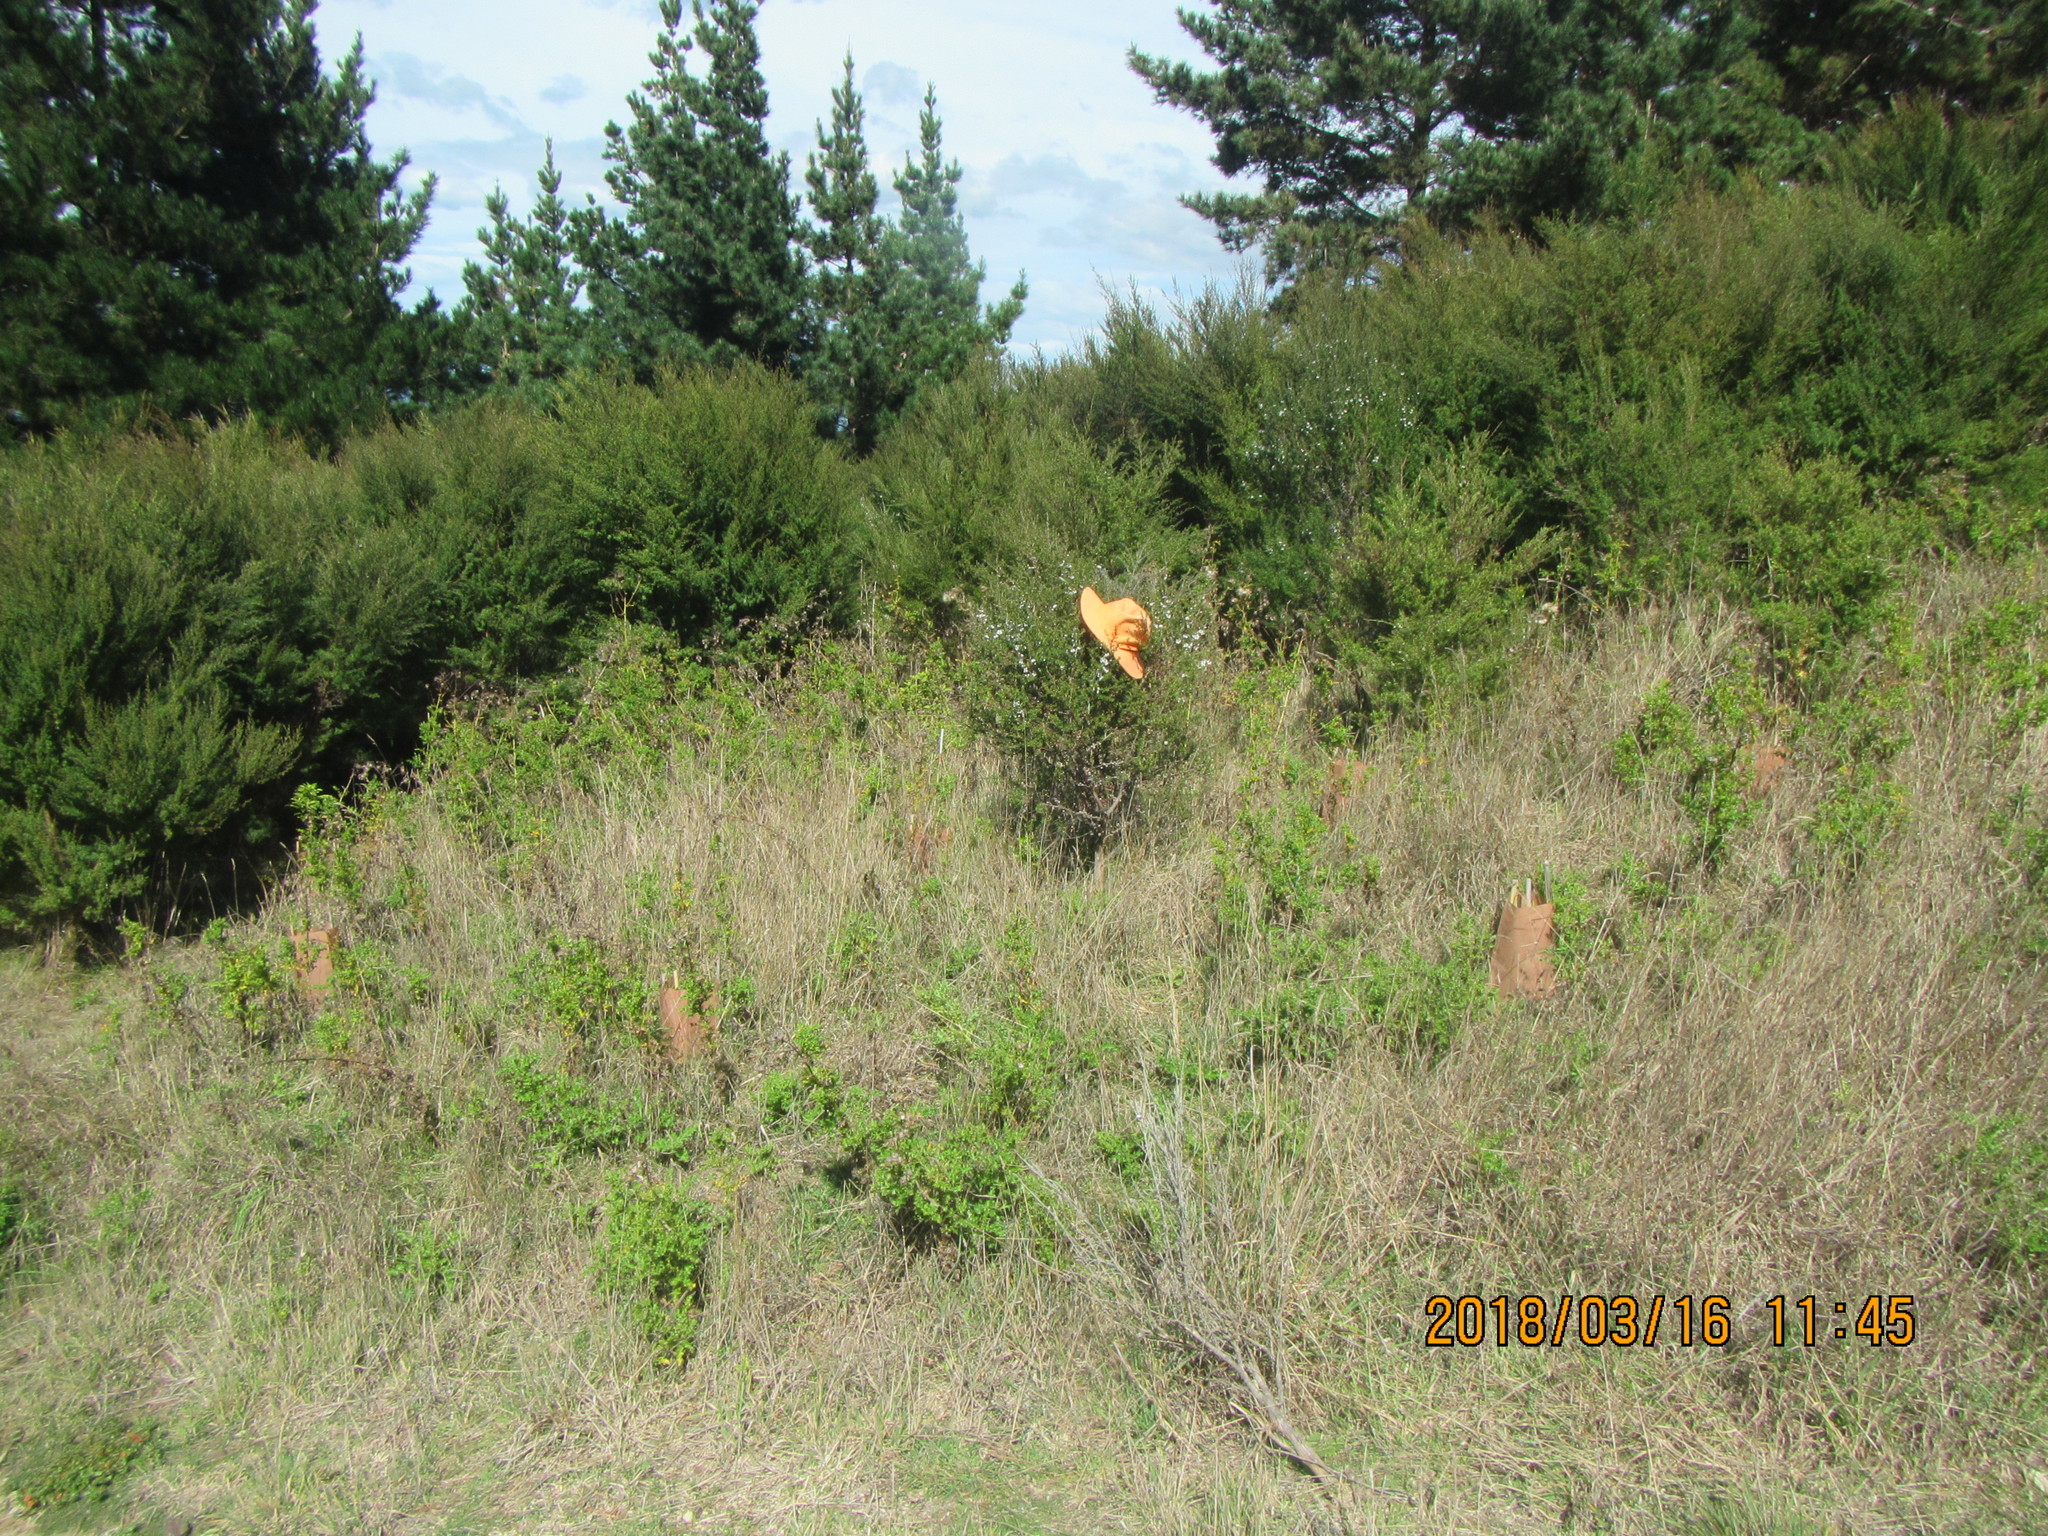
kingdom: Plantae
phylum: Tracheophyta
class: Magnoliopsida
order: Myrtales
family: Myrtaceae
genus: Leptospermum
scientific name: Leptospermum scoparium
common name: Broom tea-tree
